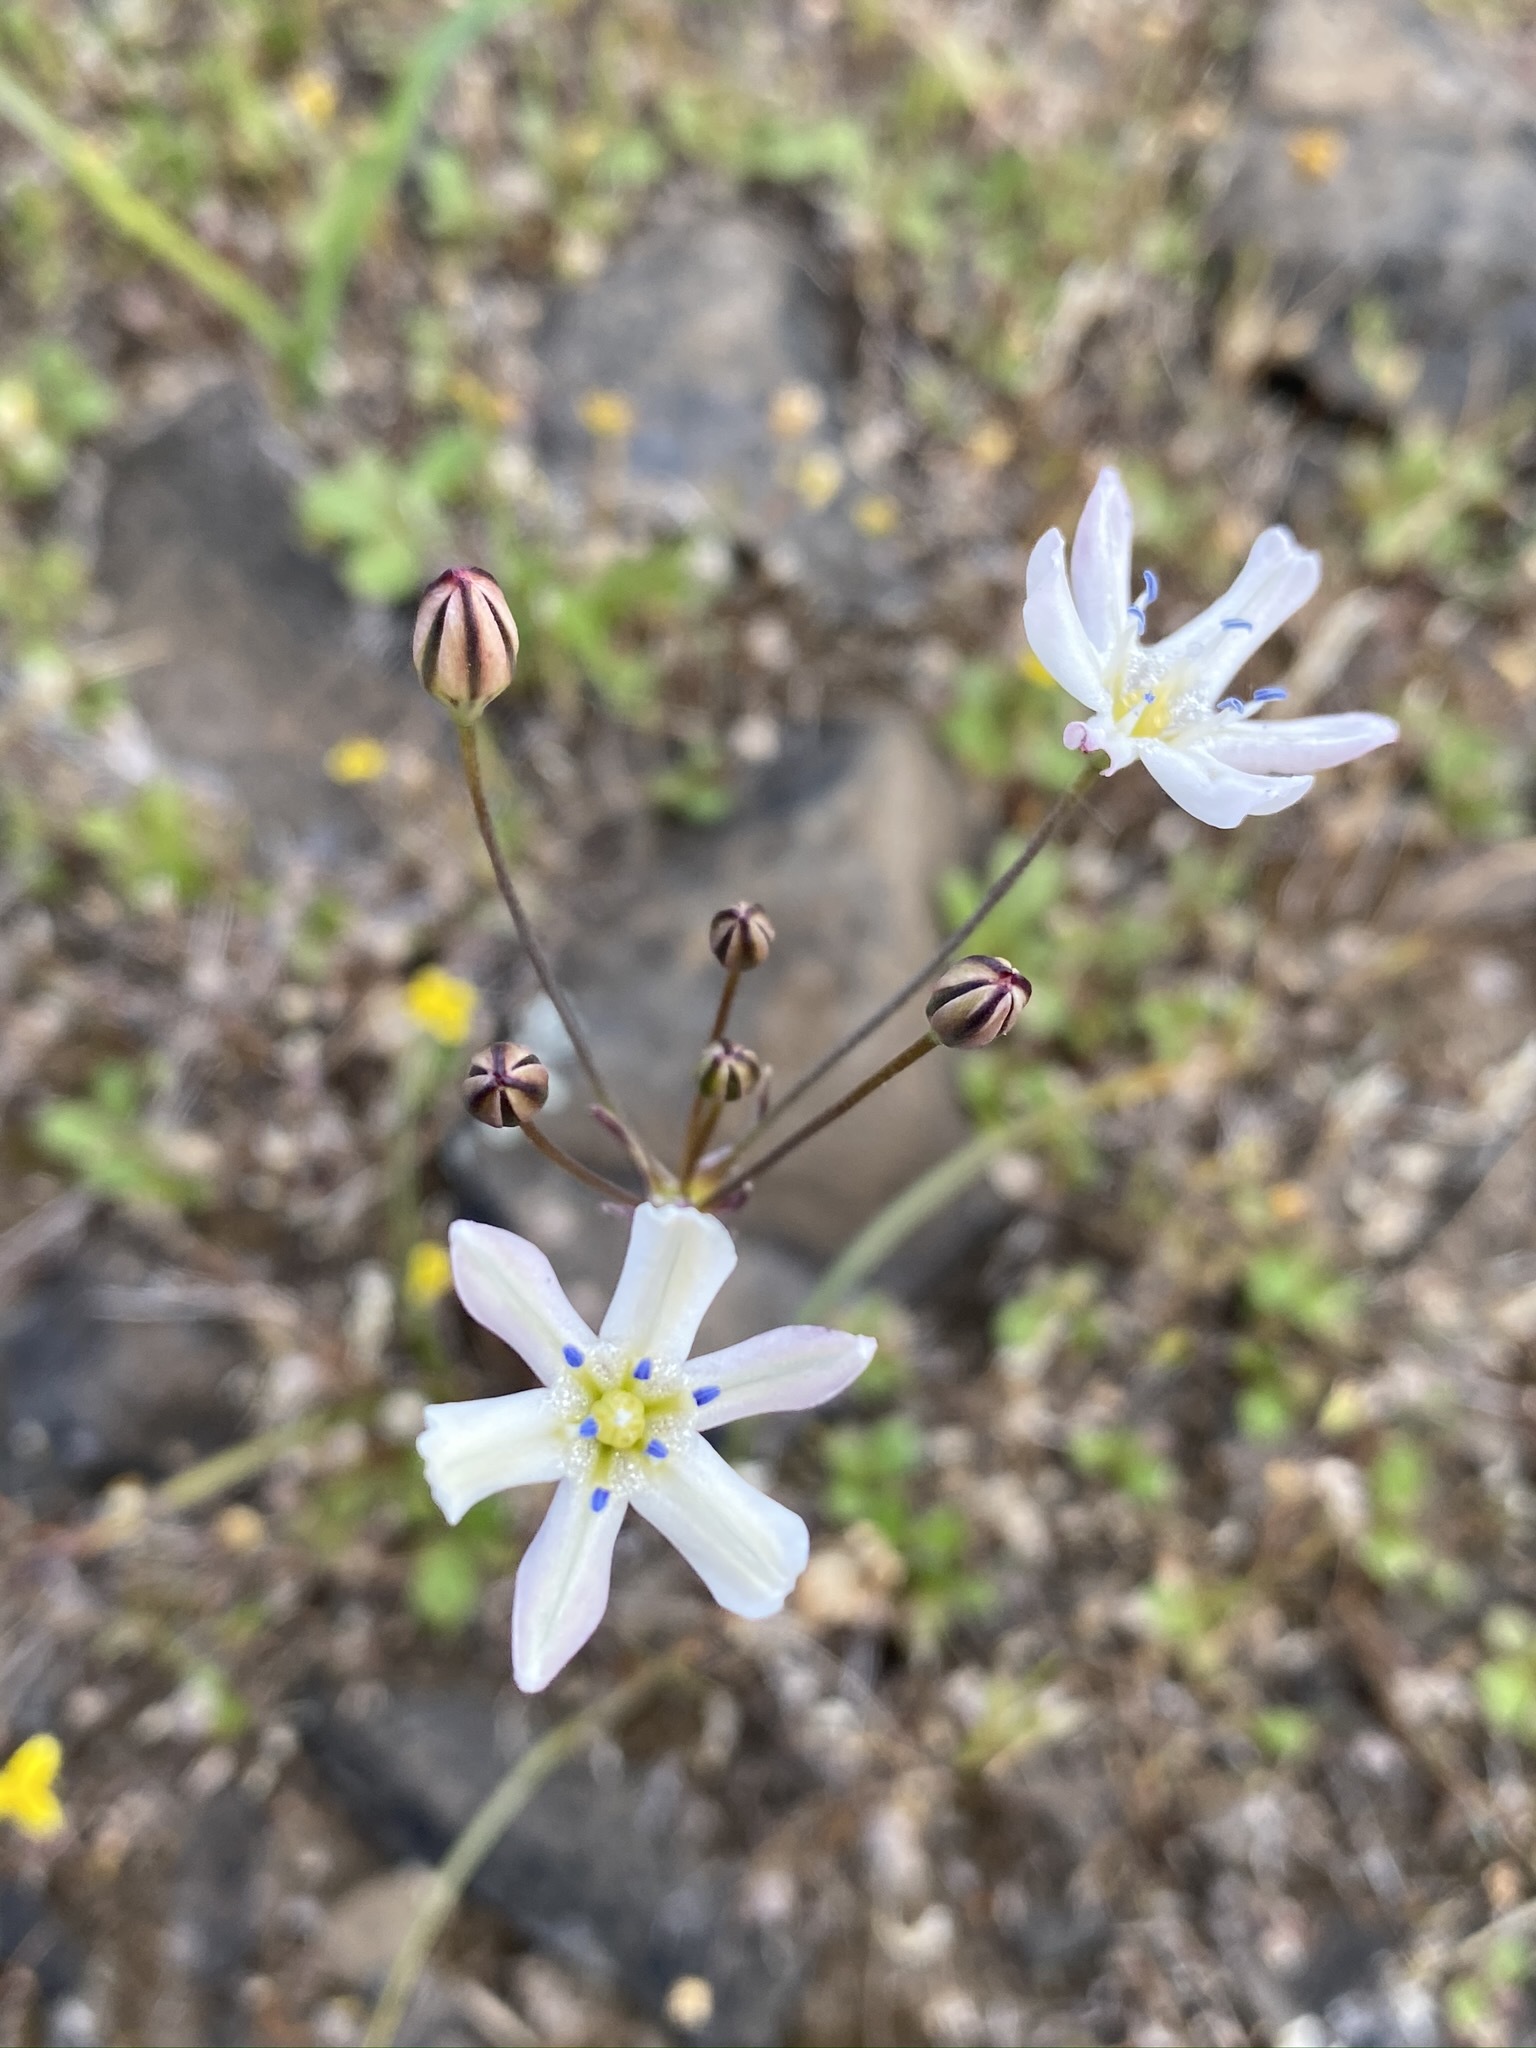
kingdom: Plantae
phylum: Tracheophyta
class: Liliopsida
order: Asparagales
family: Asparagaceae
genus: Triteleia
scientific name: Triteleia lilacina
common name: Lilac-flower wild hyacinth
